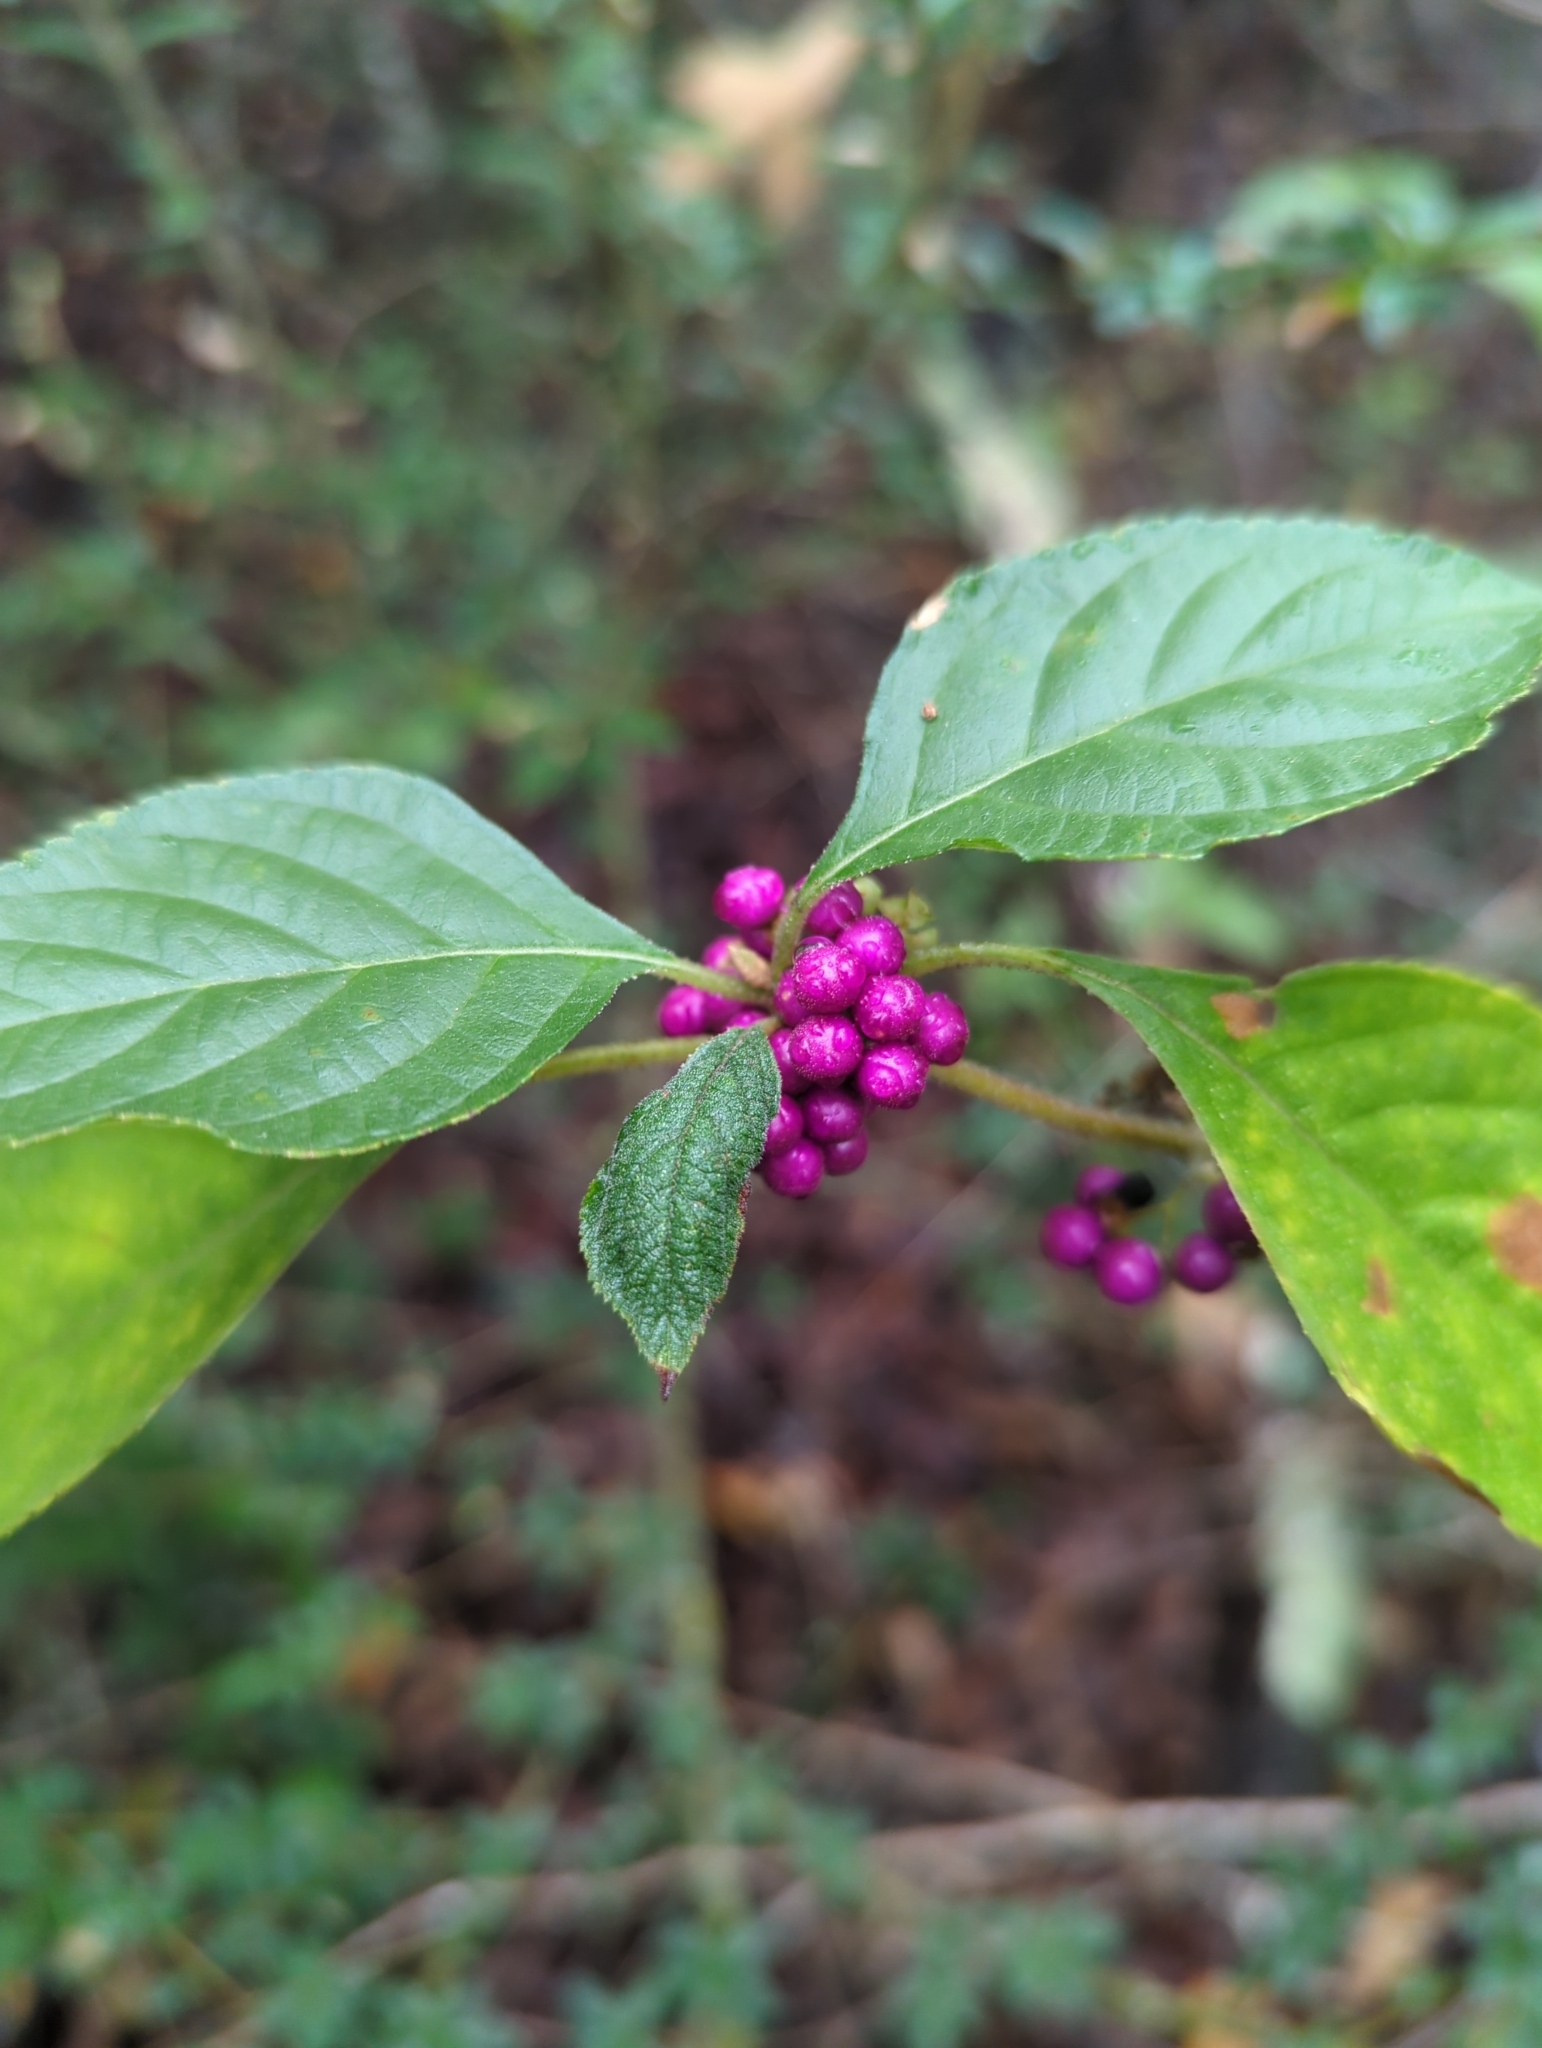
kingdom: Plantae
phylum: Tracheophyta
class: Magnoliopsida
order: Lamiales
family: Lamiaceae
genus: Callicarpa
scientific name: Callicarpa americana
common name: American beautyberry
